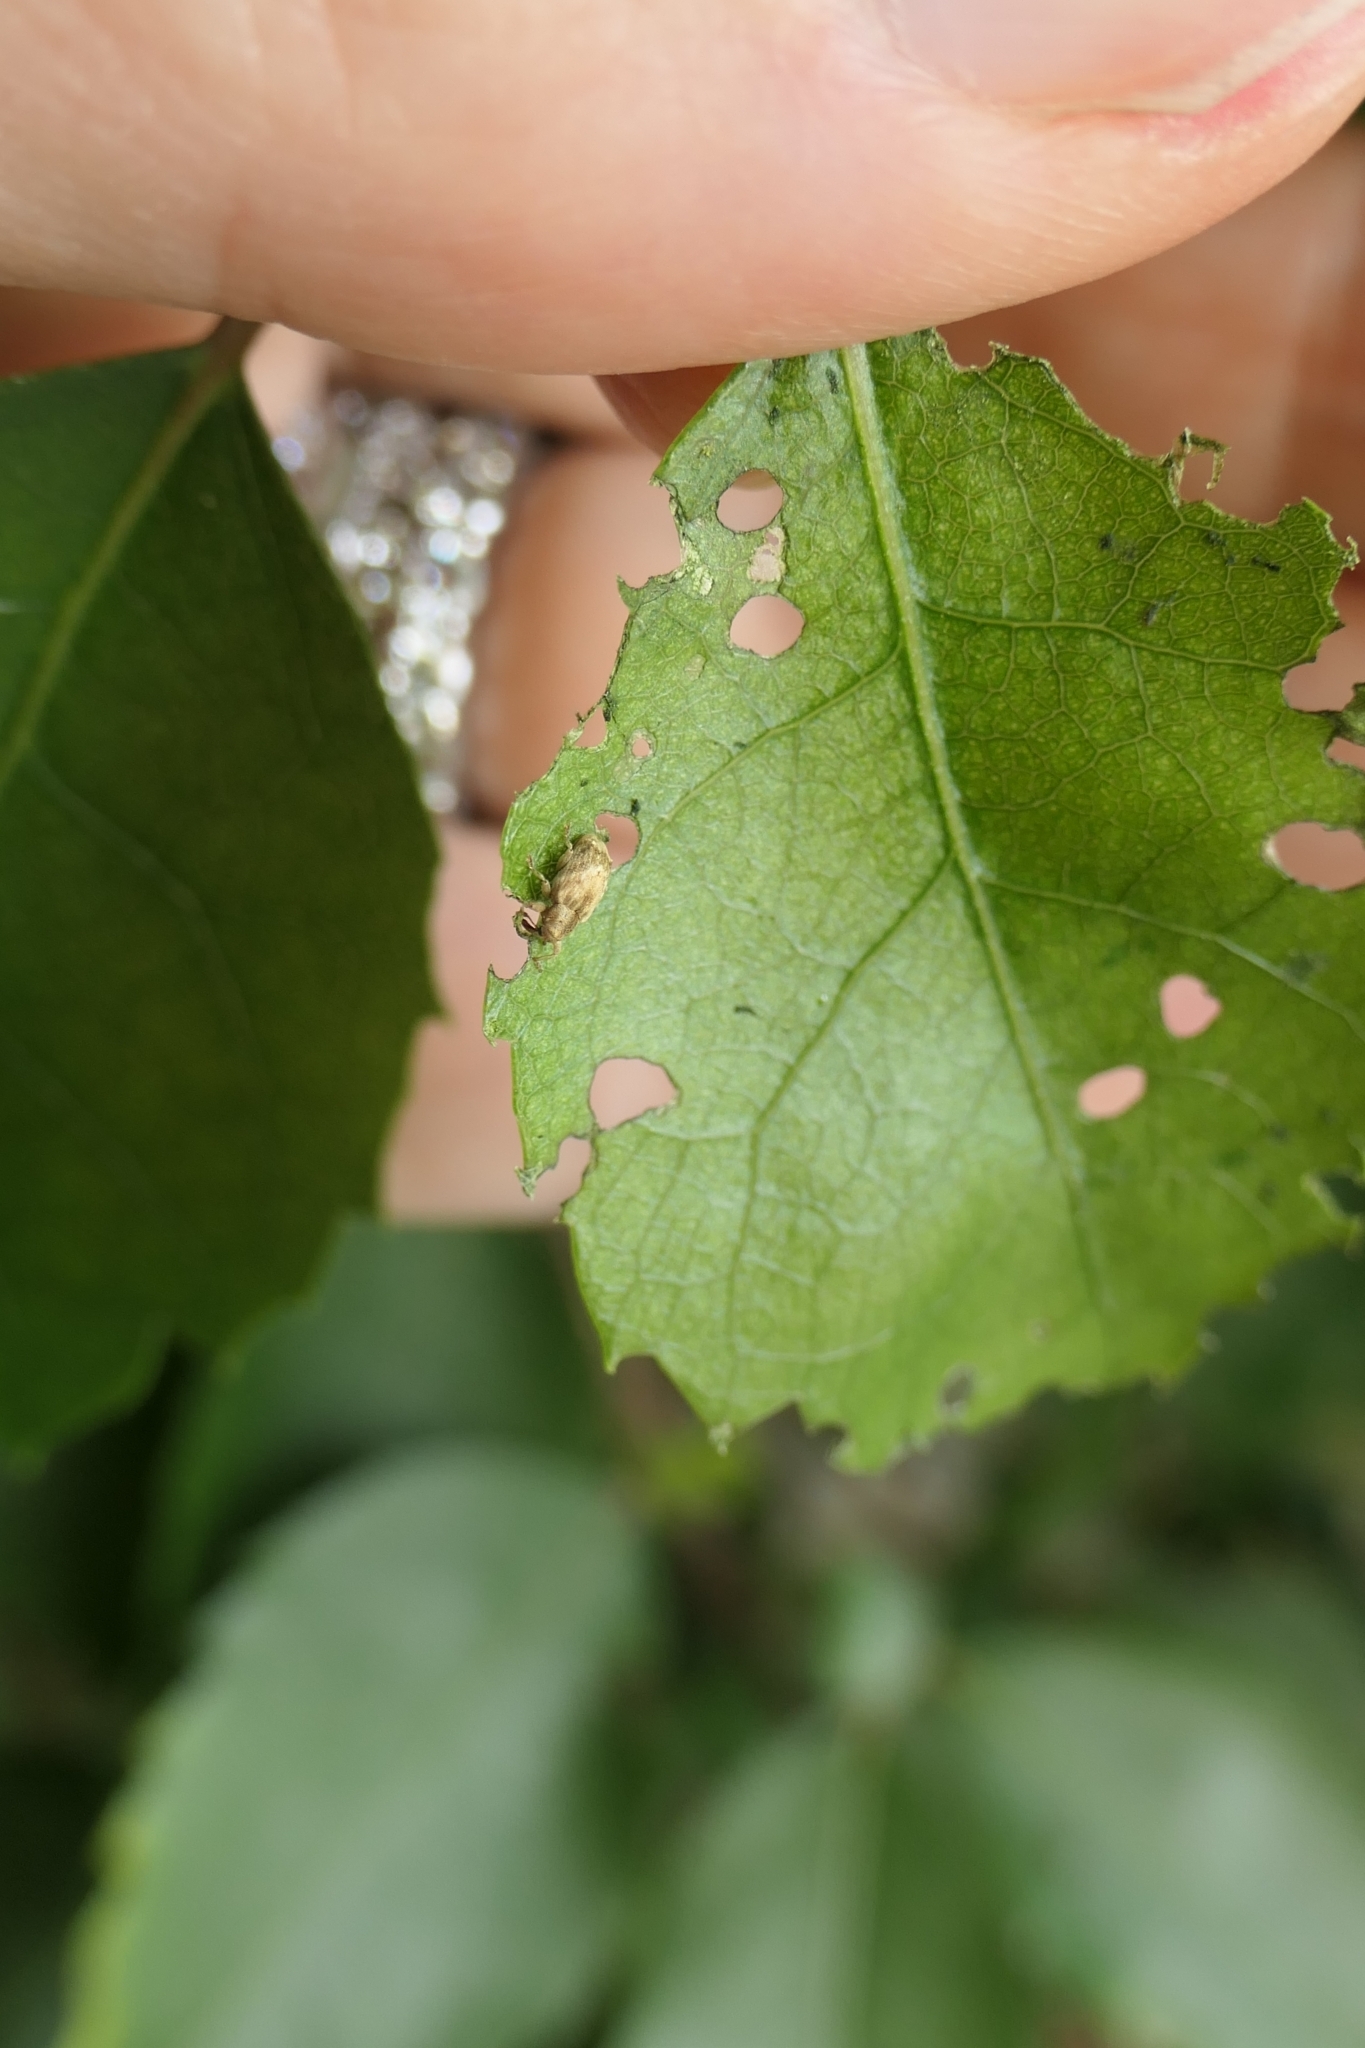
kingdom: Animalia
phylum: Arthropoda
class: Insecta
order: Coleoptera
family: Curculionidae
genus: Aneuma
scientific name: Aneuma compta
